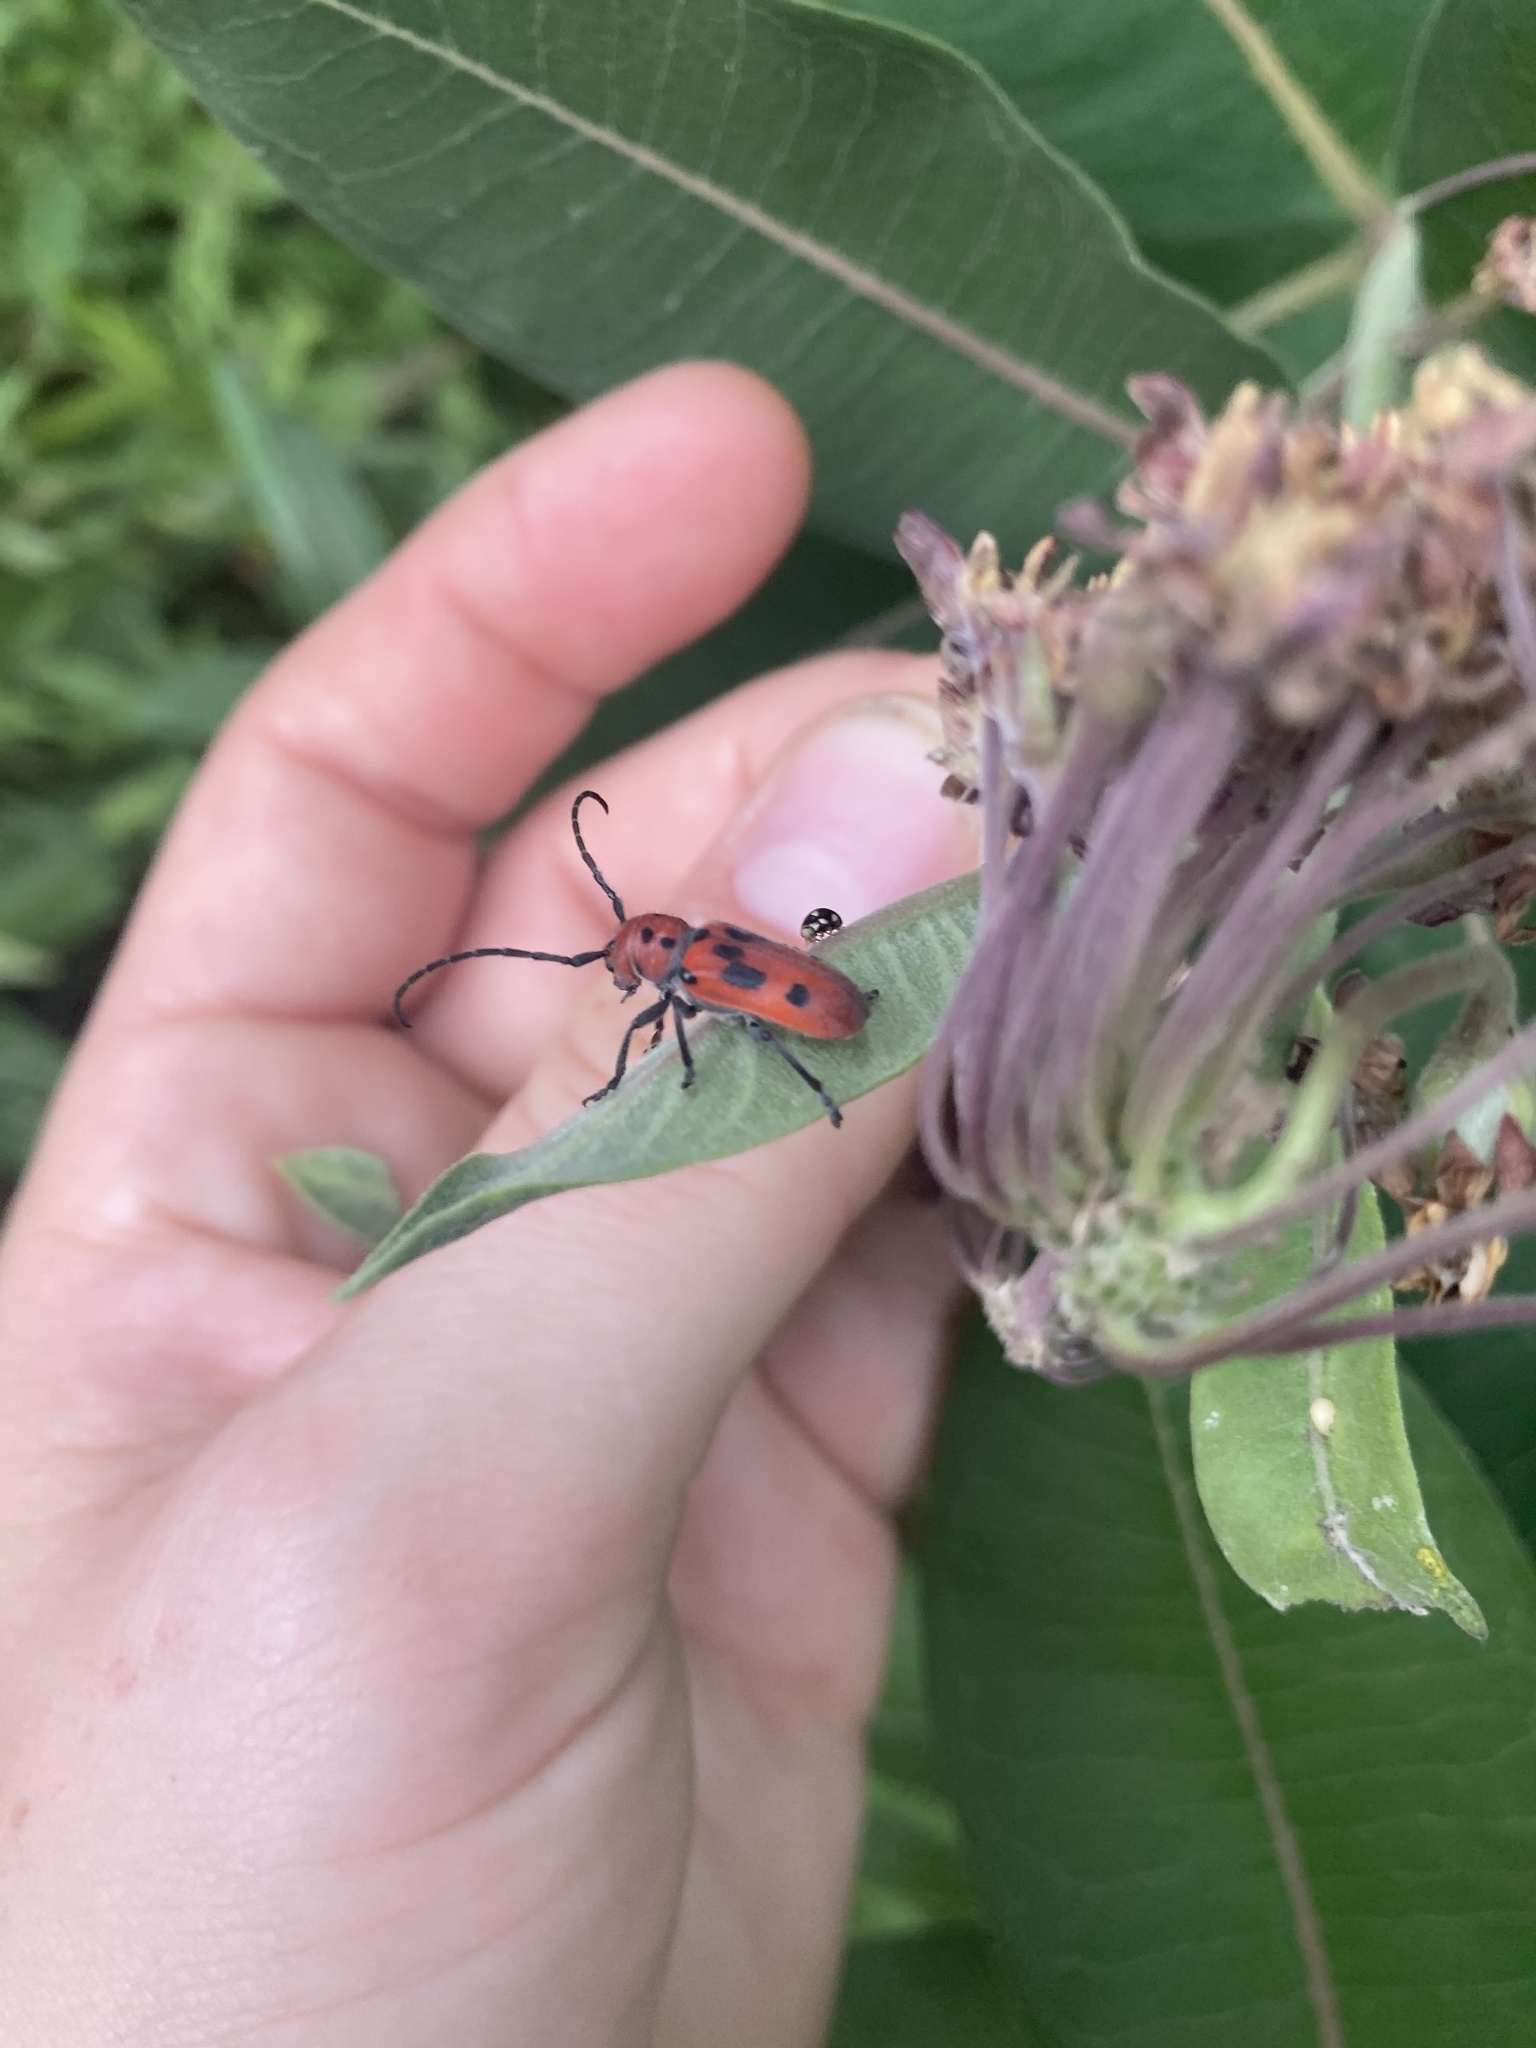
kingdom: Animalia
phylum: Arthropoda
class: Insecta
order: Coleoptera
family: Cerambycidae
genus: Tetraopes
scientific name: Tetraopes tetrophthalmus
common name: Red milkweed beetle
